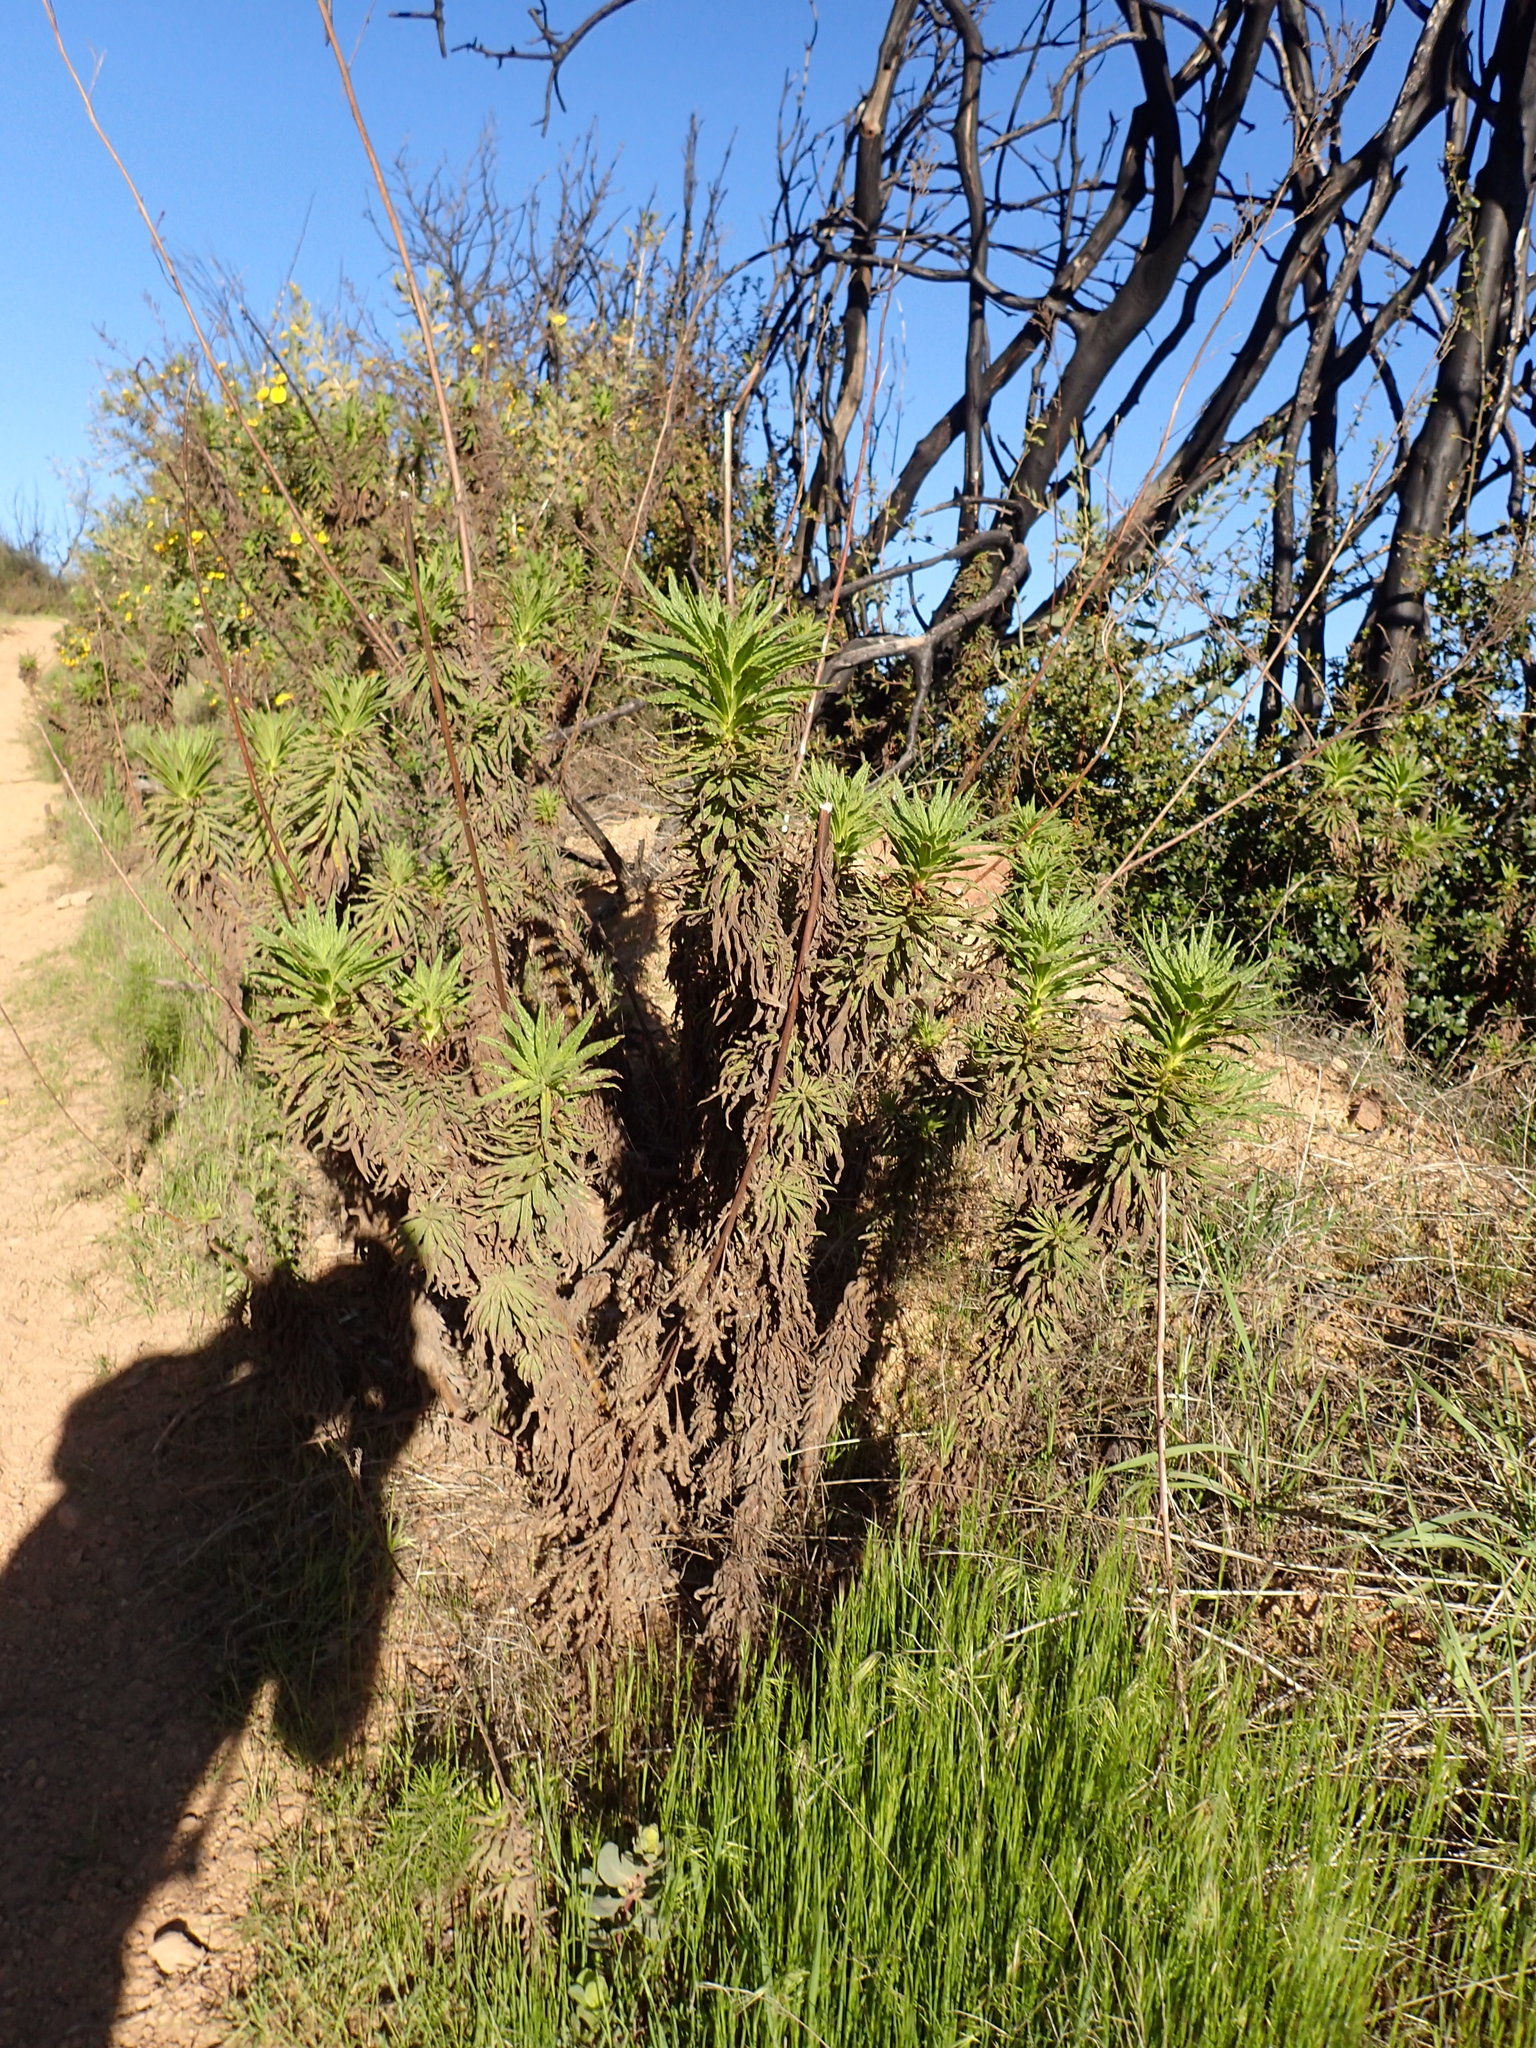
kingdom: Plantae
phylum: Tracheophyta
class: Magnoliopsida
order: Boraginales
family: Namaceae
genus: Turricula
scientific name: Turricula parryi
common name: Poodle-dog-bush
